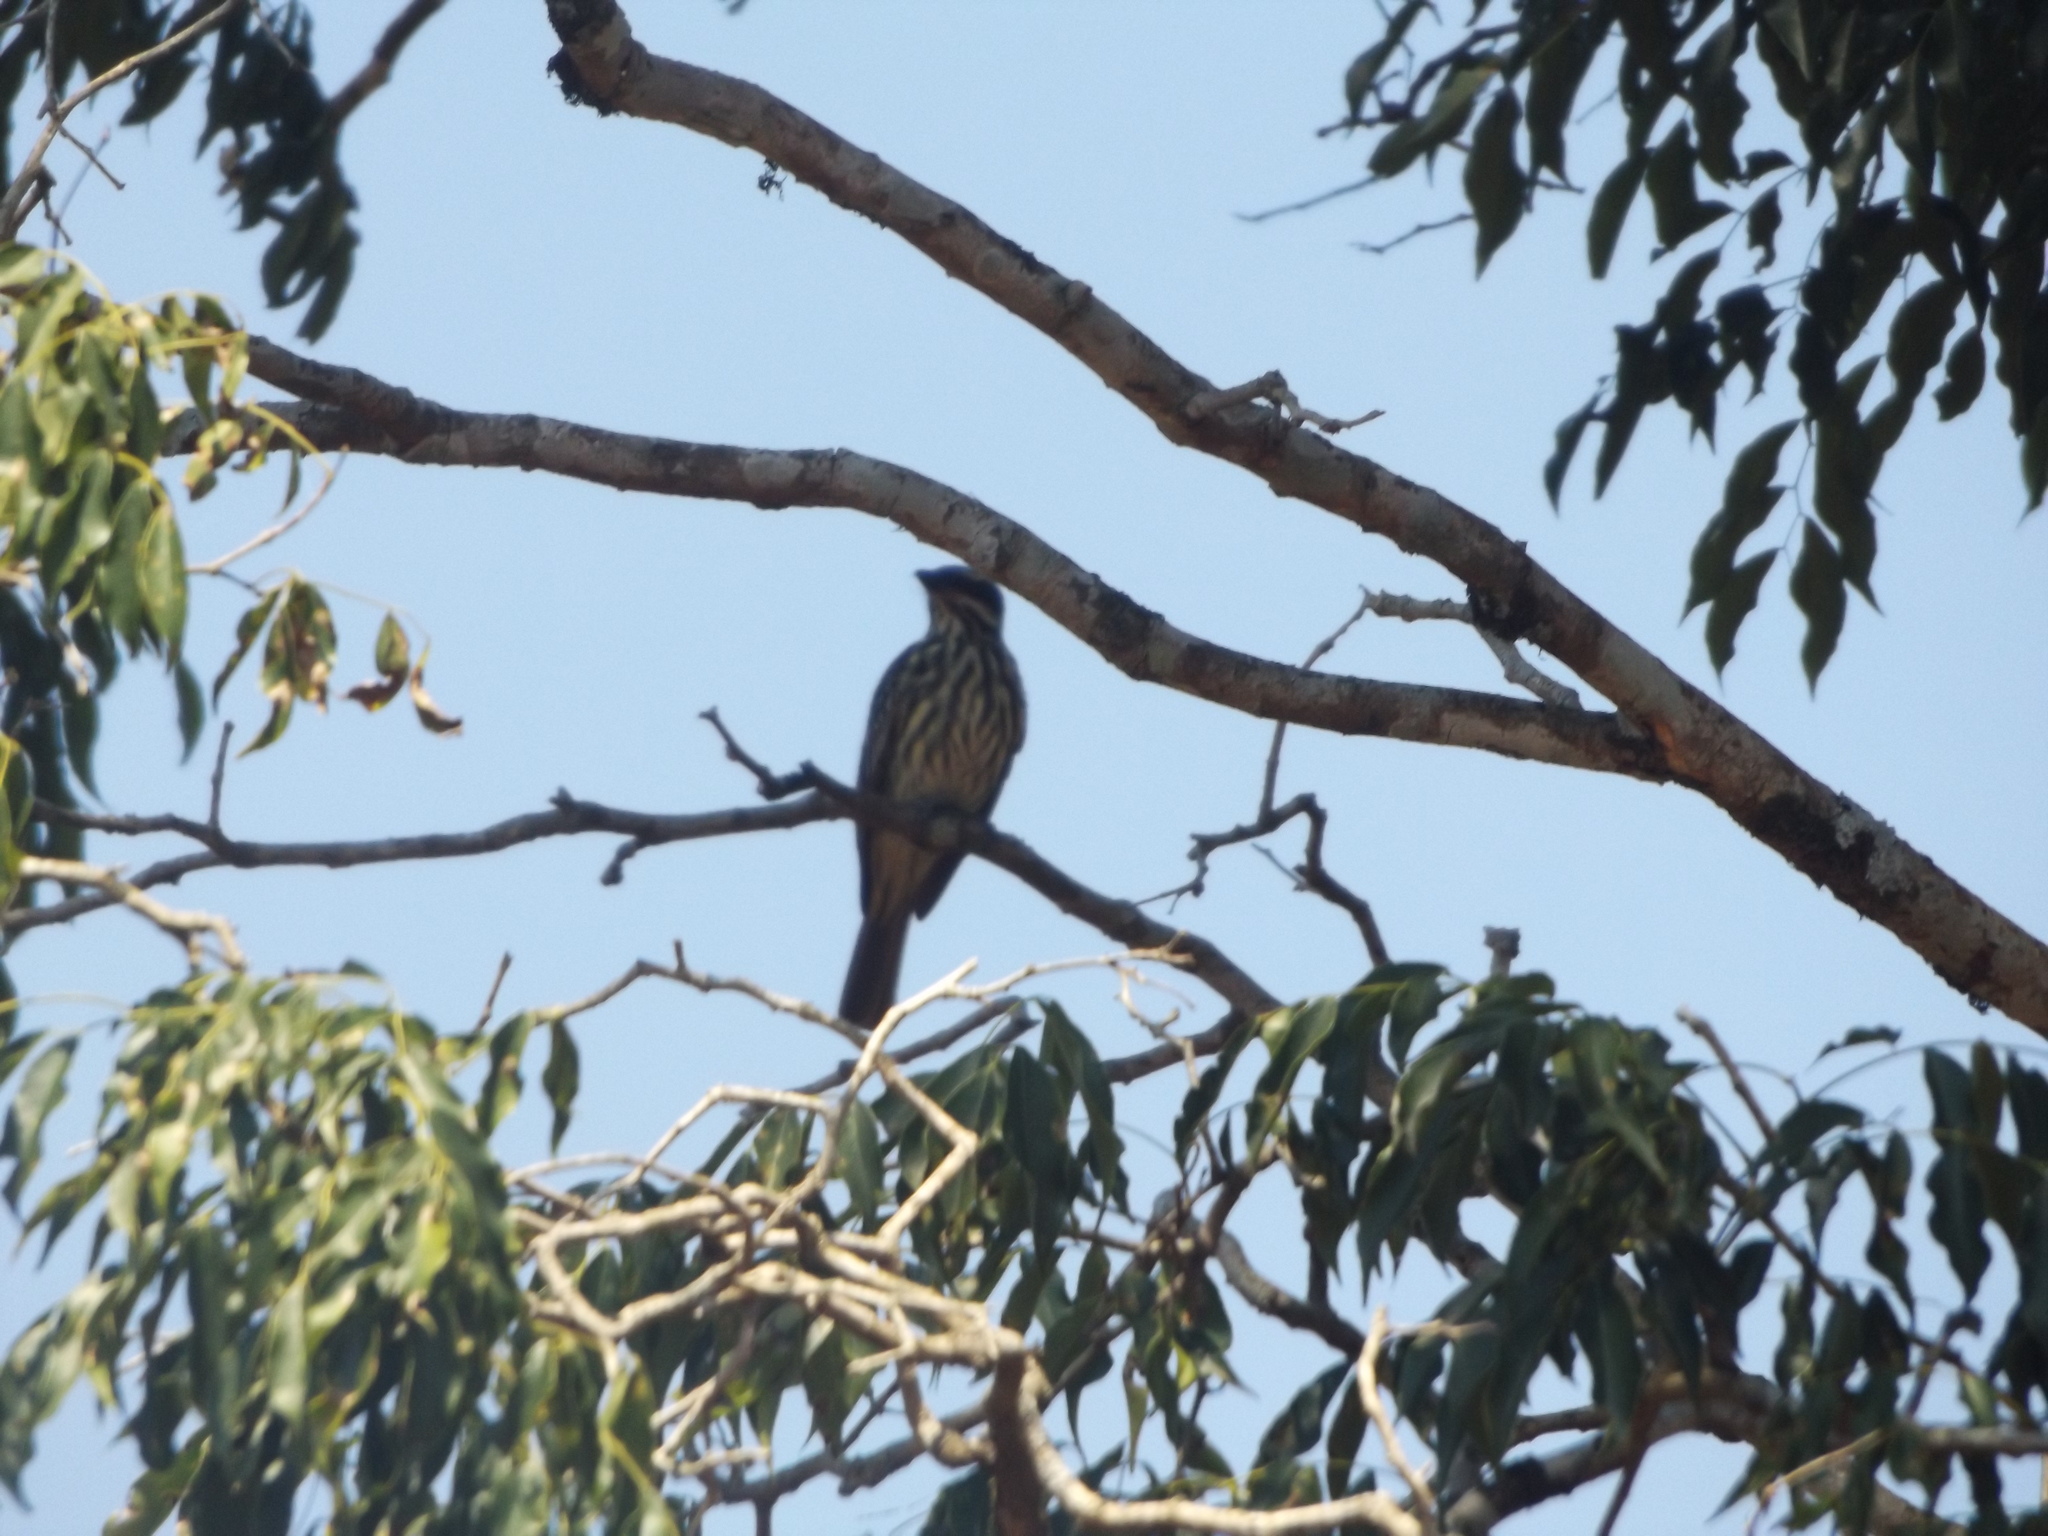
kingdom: Animalia
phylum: Chordata
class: Aves
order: Passeriformes
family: Tyrannidae
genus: Myiodynastes
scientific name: Myiodynastes maculatus
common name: Streaked flycatcher
